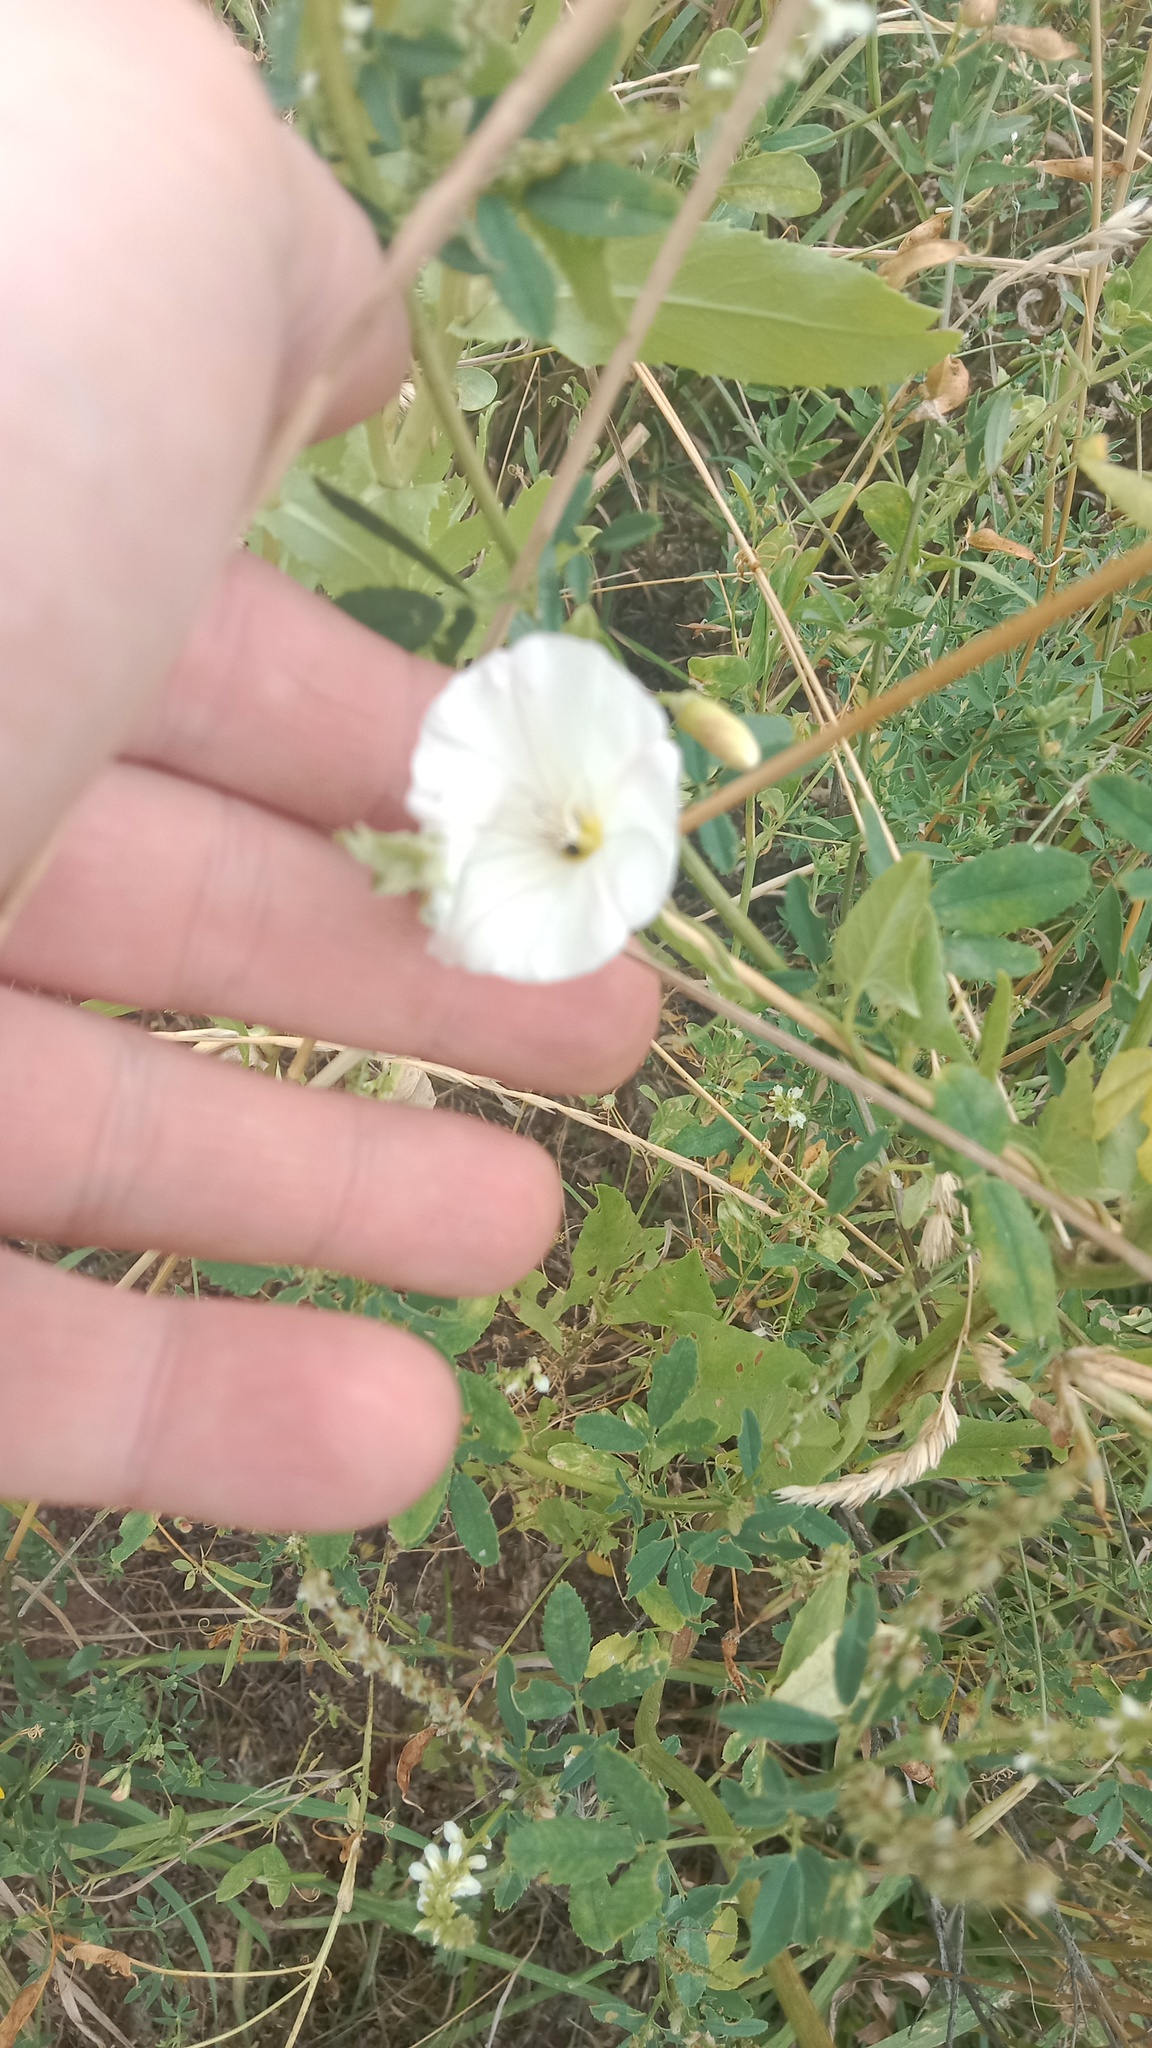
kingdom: Plantae
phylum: Tracheophyta
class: Magnoliopsida
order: Solanales
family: Convolvulaceae
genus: Convolvulus
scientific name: Convolvulus arvensis
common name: Field bindweed
